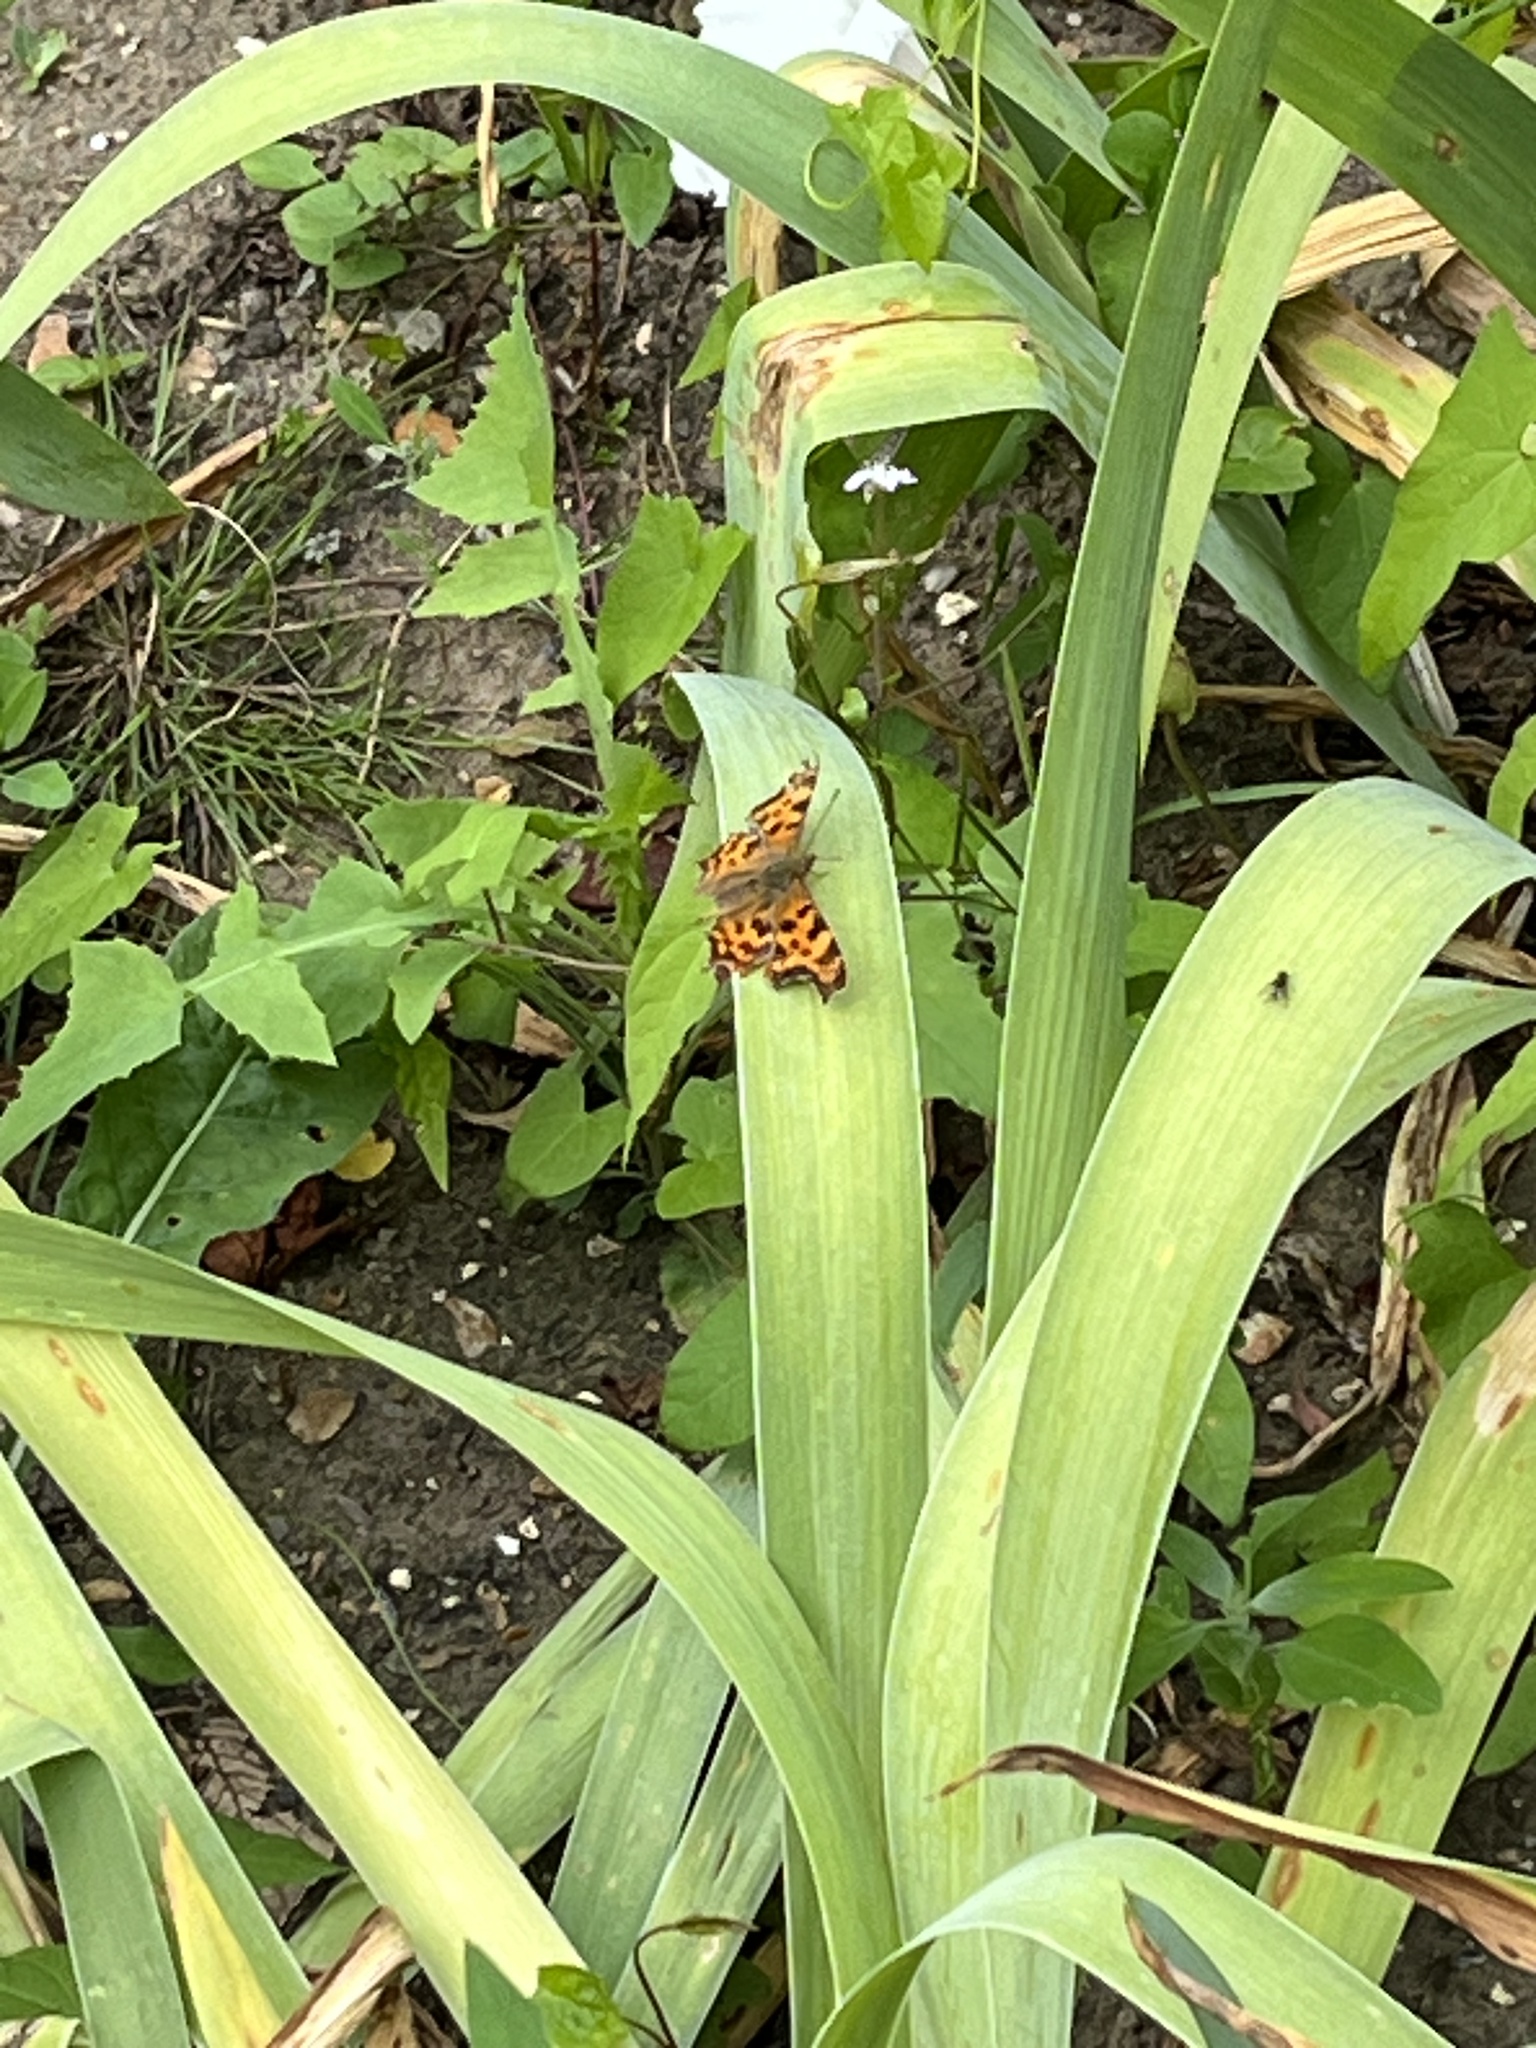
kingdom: Animalia
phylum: Arthropoda
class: Insecta
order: Lepidoptera
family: Nymphalidae
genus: Polygonia
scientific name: Polygonia c-album
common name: Comma
